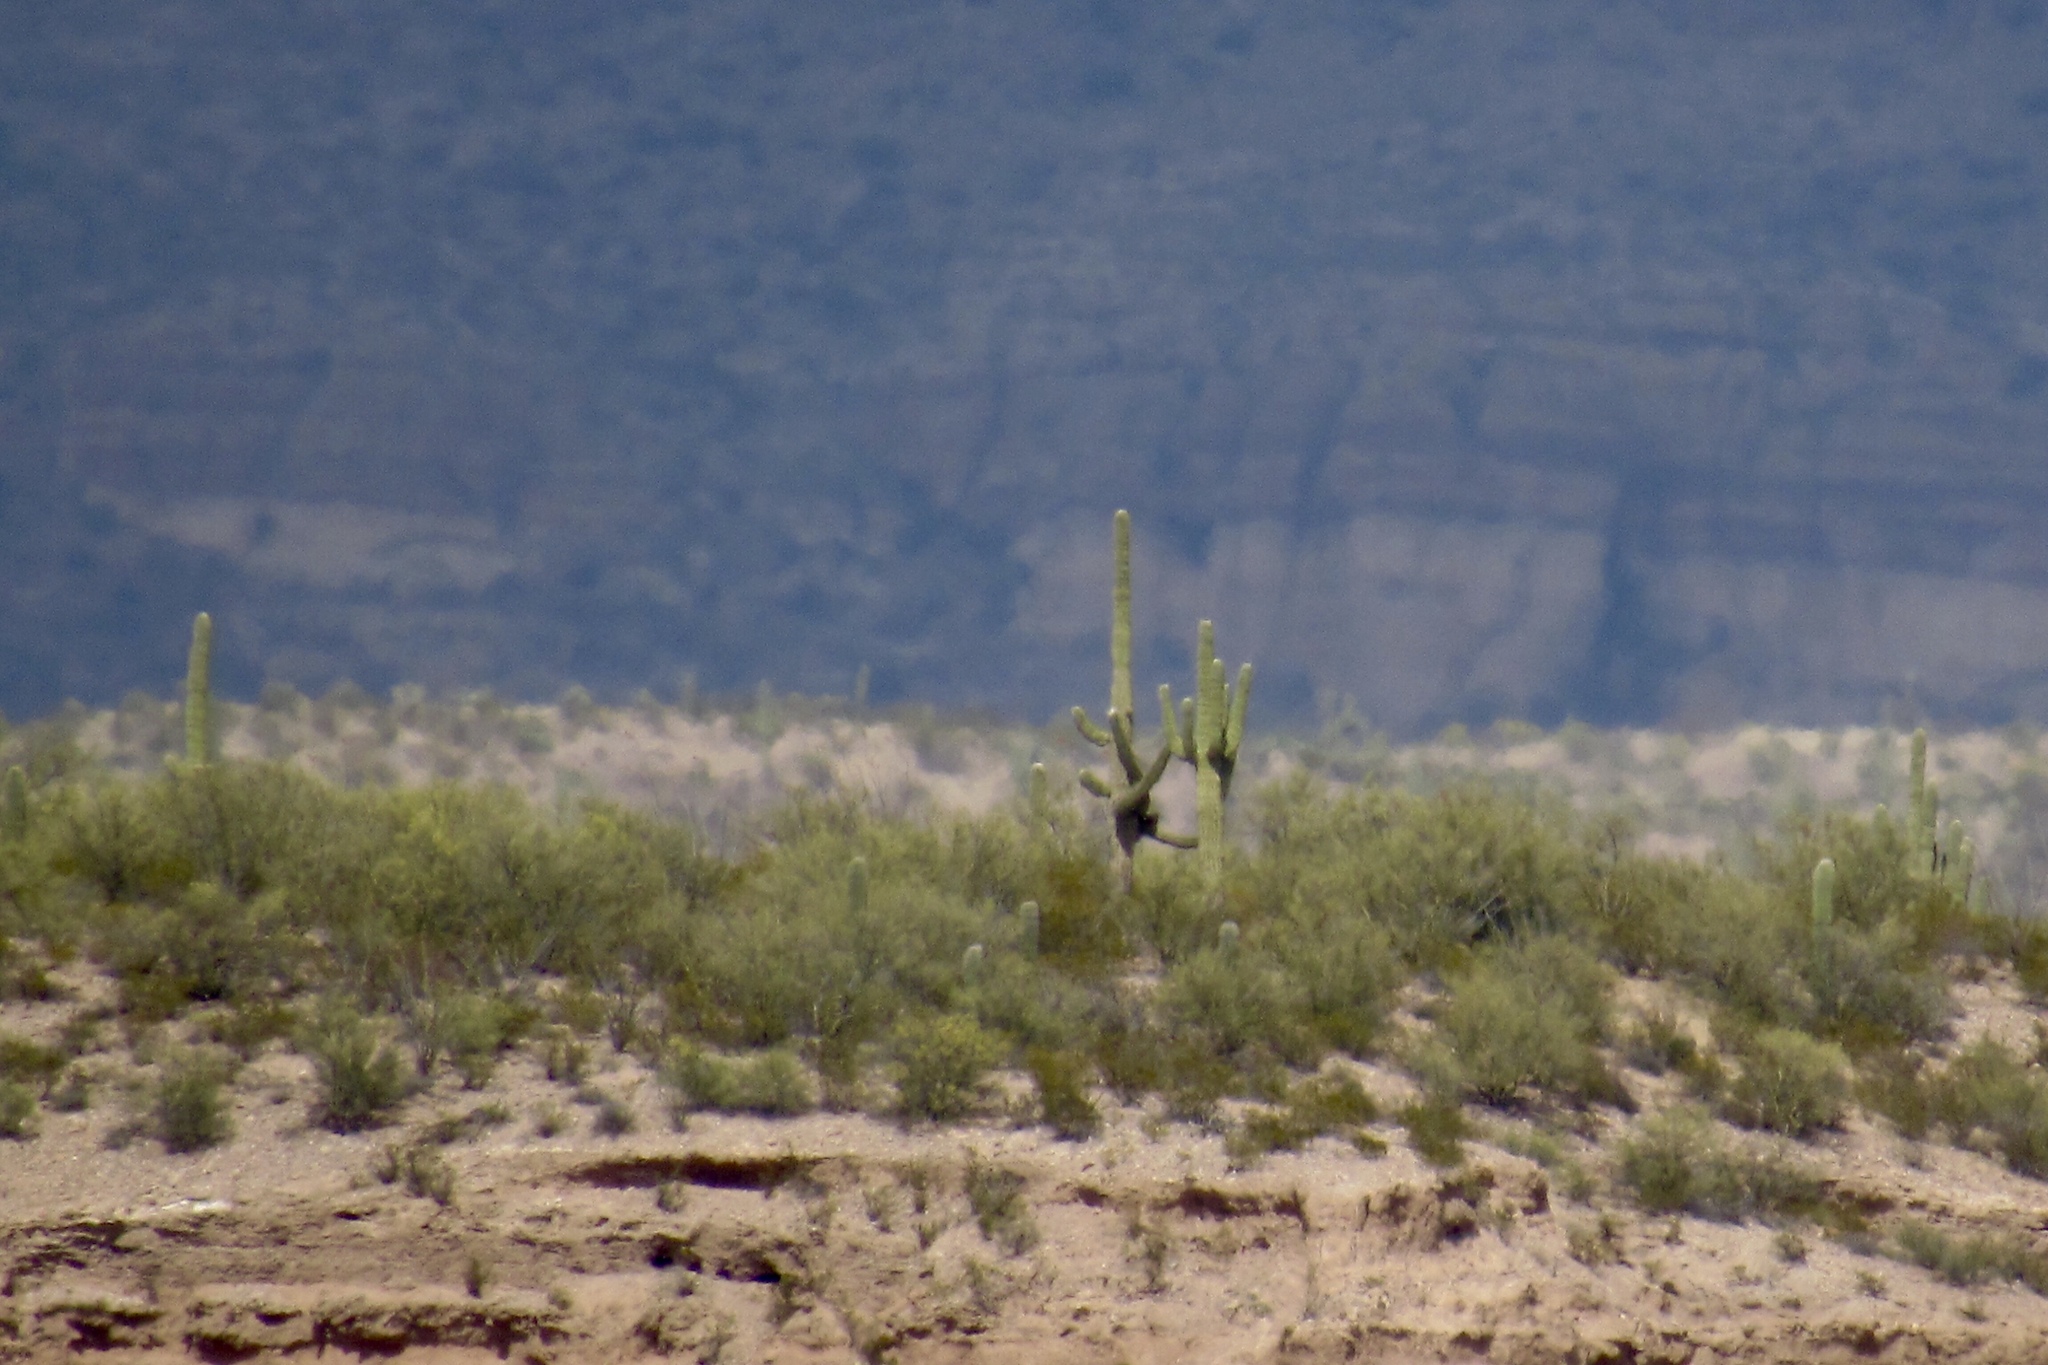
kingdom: Plantae
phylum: Tracheophyta
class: Magnoliopsida
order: Caryophyllales
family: Cactaceae
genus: Carnegiea
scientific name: Carnegiea gigantea
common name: Saguaro
